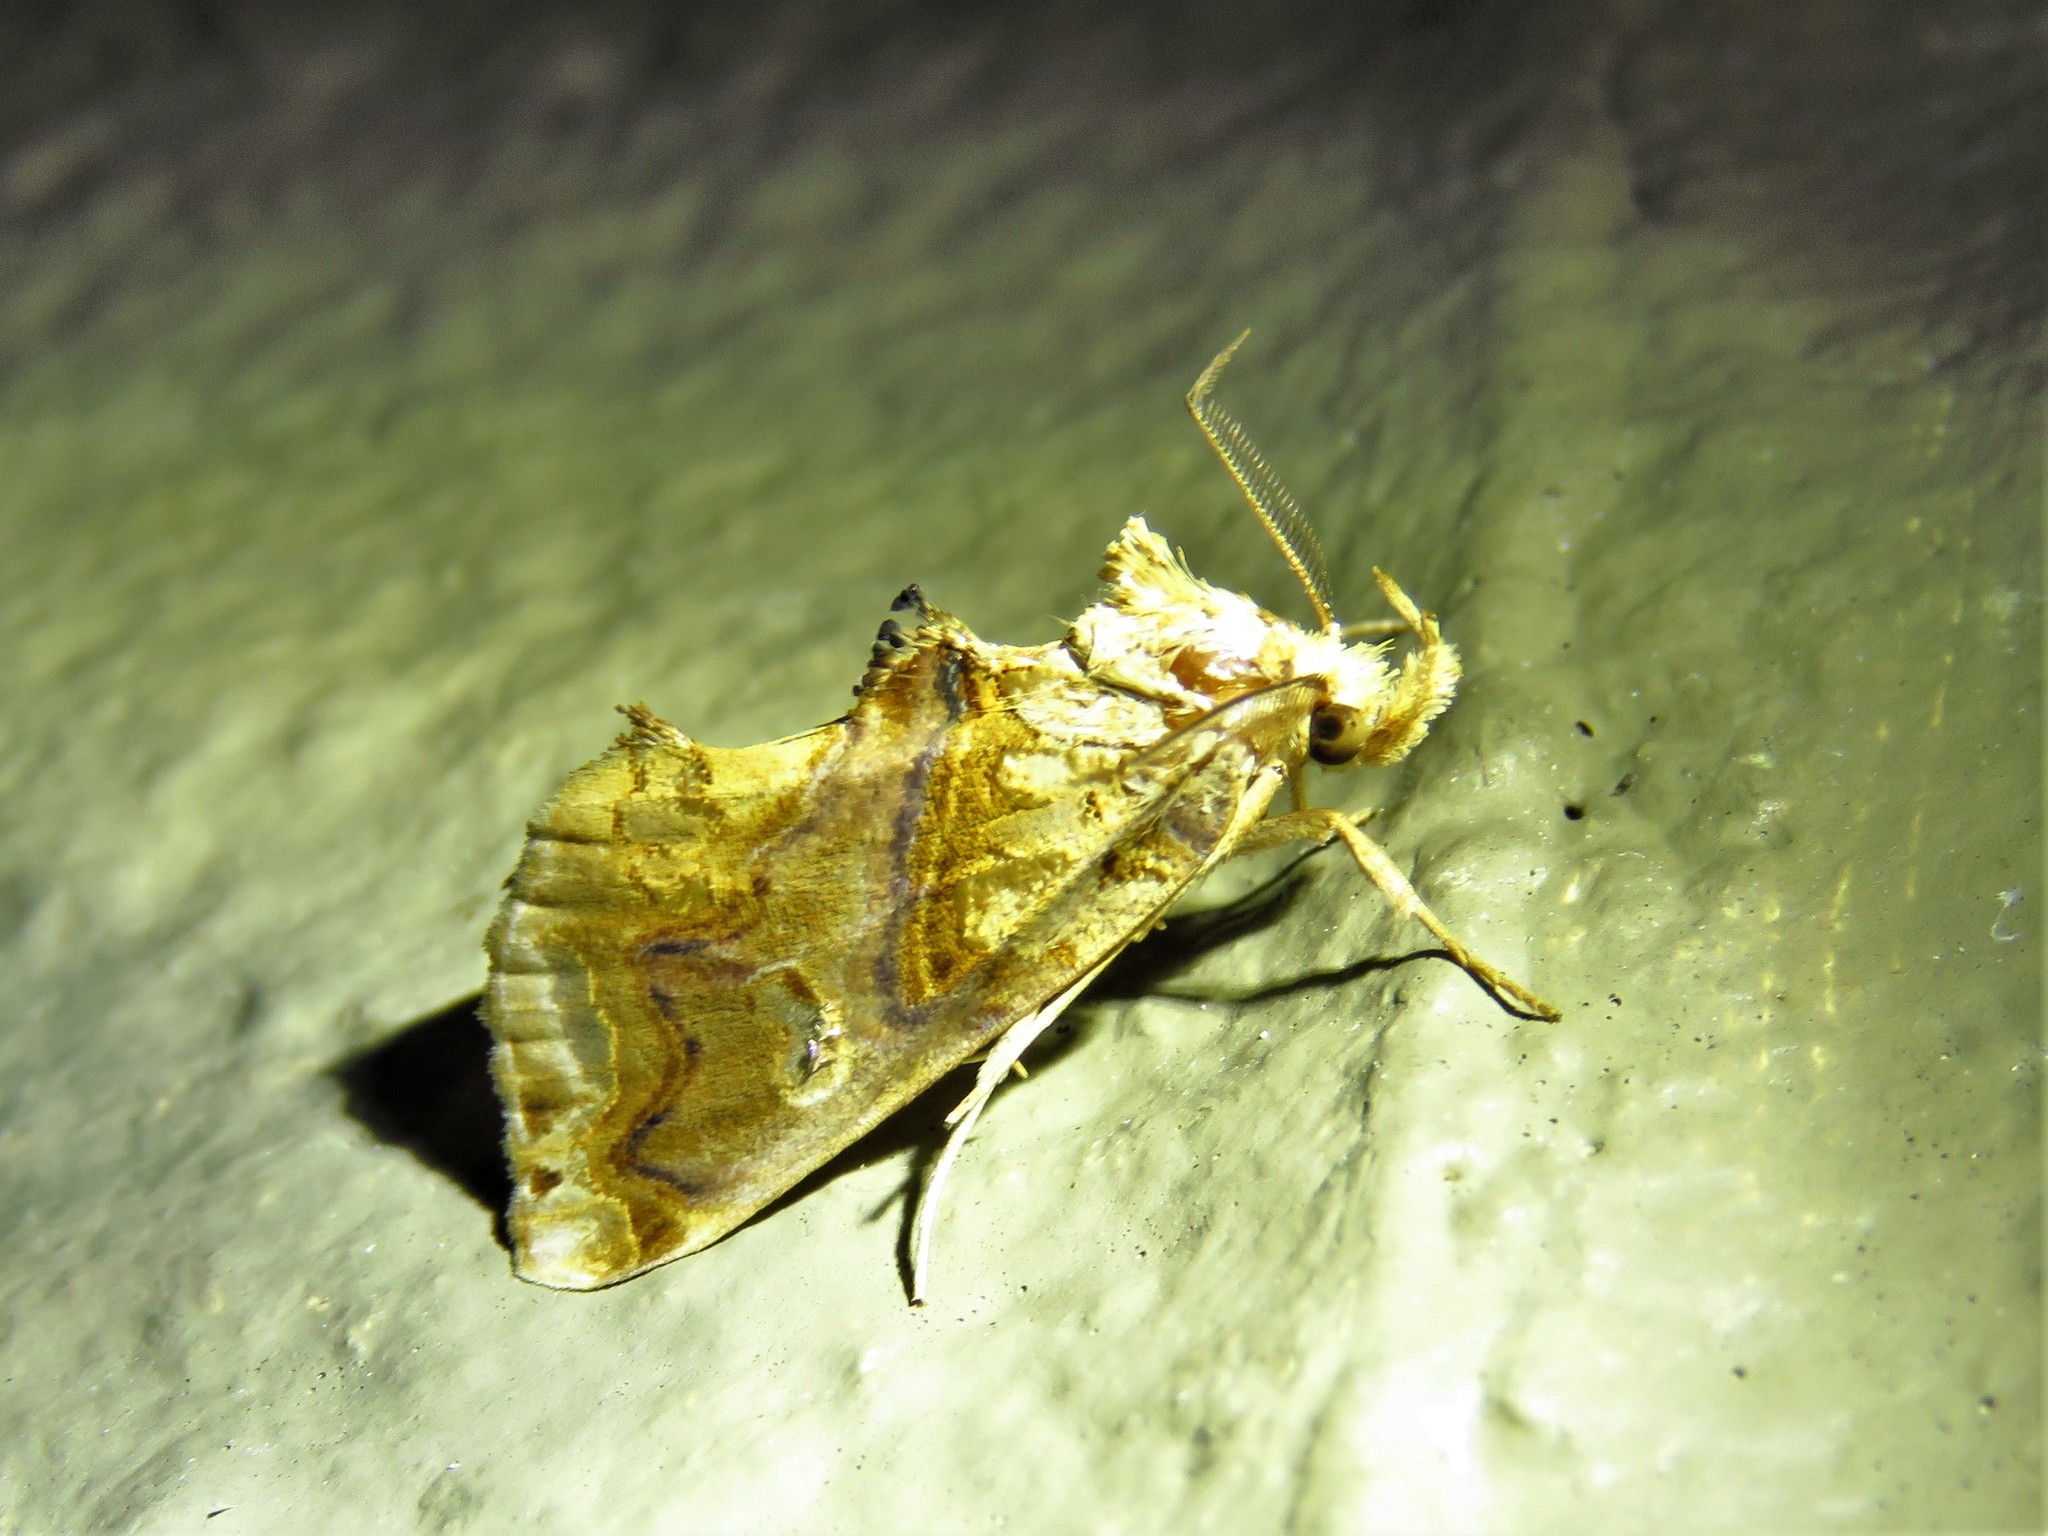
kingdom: Animalia
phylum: Arthropoda
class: Insecta
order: Lepidoptera
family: Erebidae
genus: Plusiodonta
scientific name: Plusiodonta compressipalpis
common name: Moonseed moth
